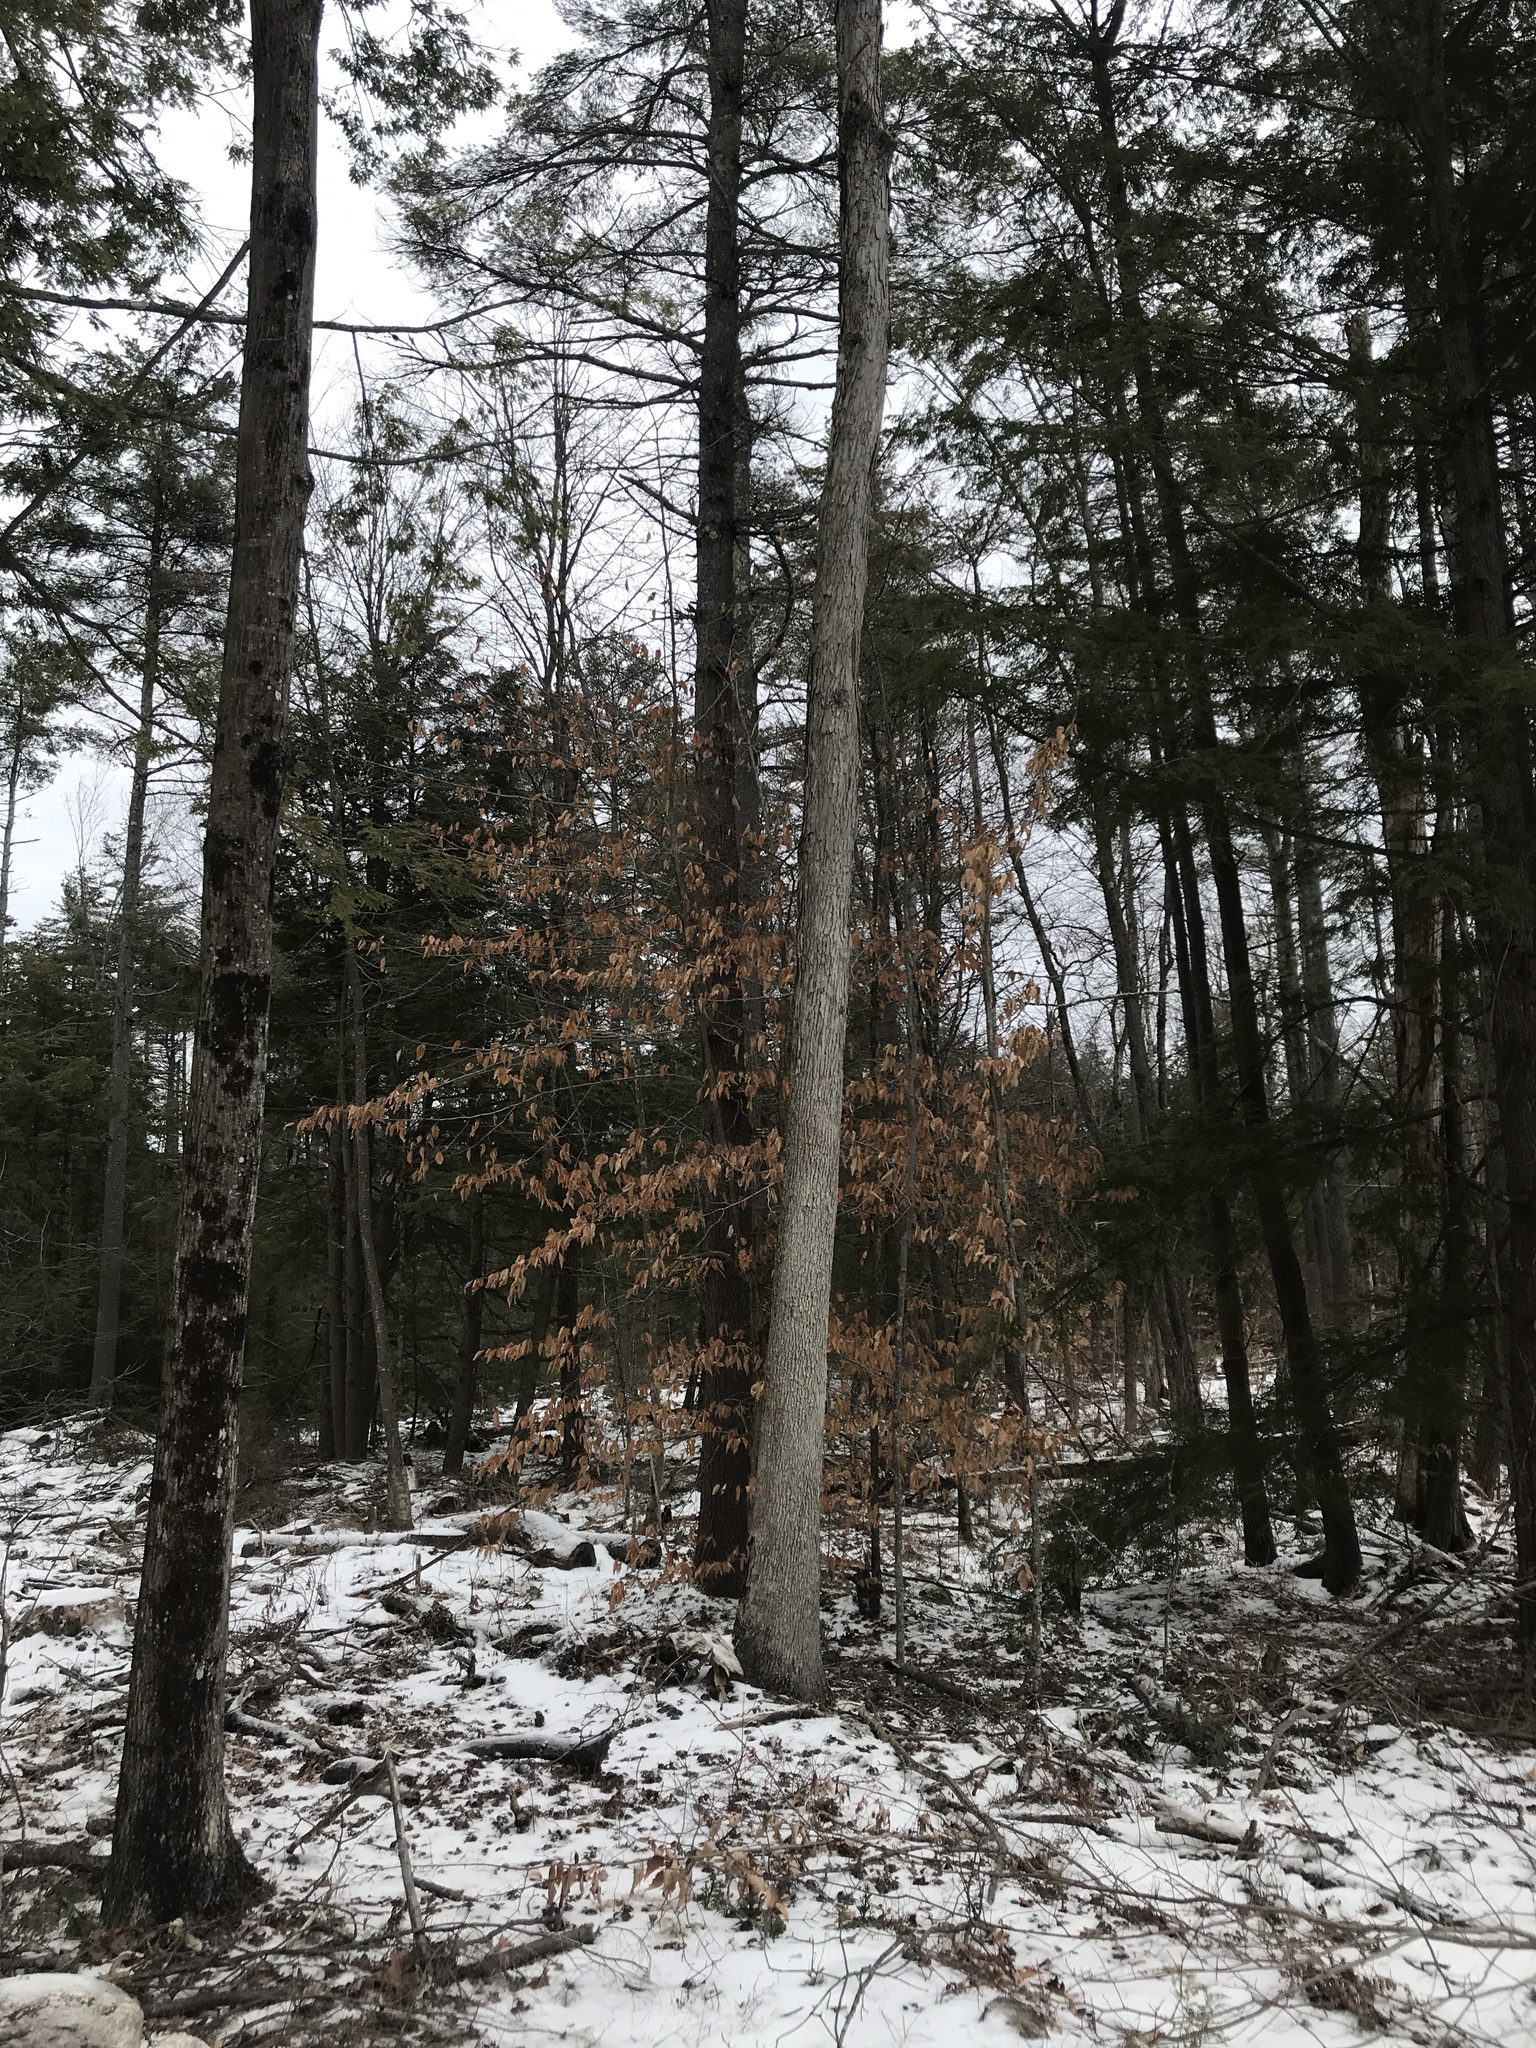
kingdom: Plantae
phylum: Tracheophyta
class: Magnoliopsida
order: Fagales
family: Fagaceae
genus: Quercus
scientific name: Quercus alba
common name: White oak
